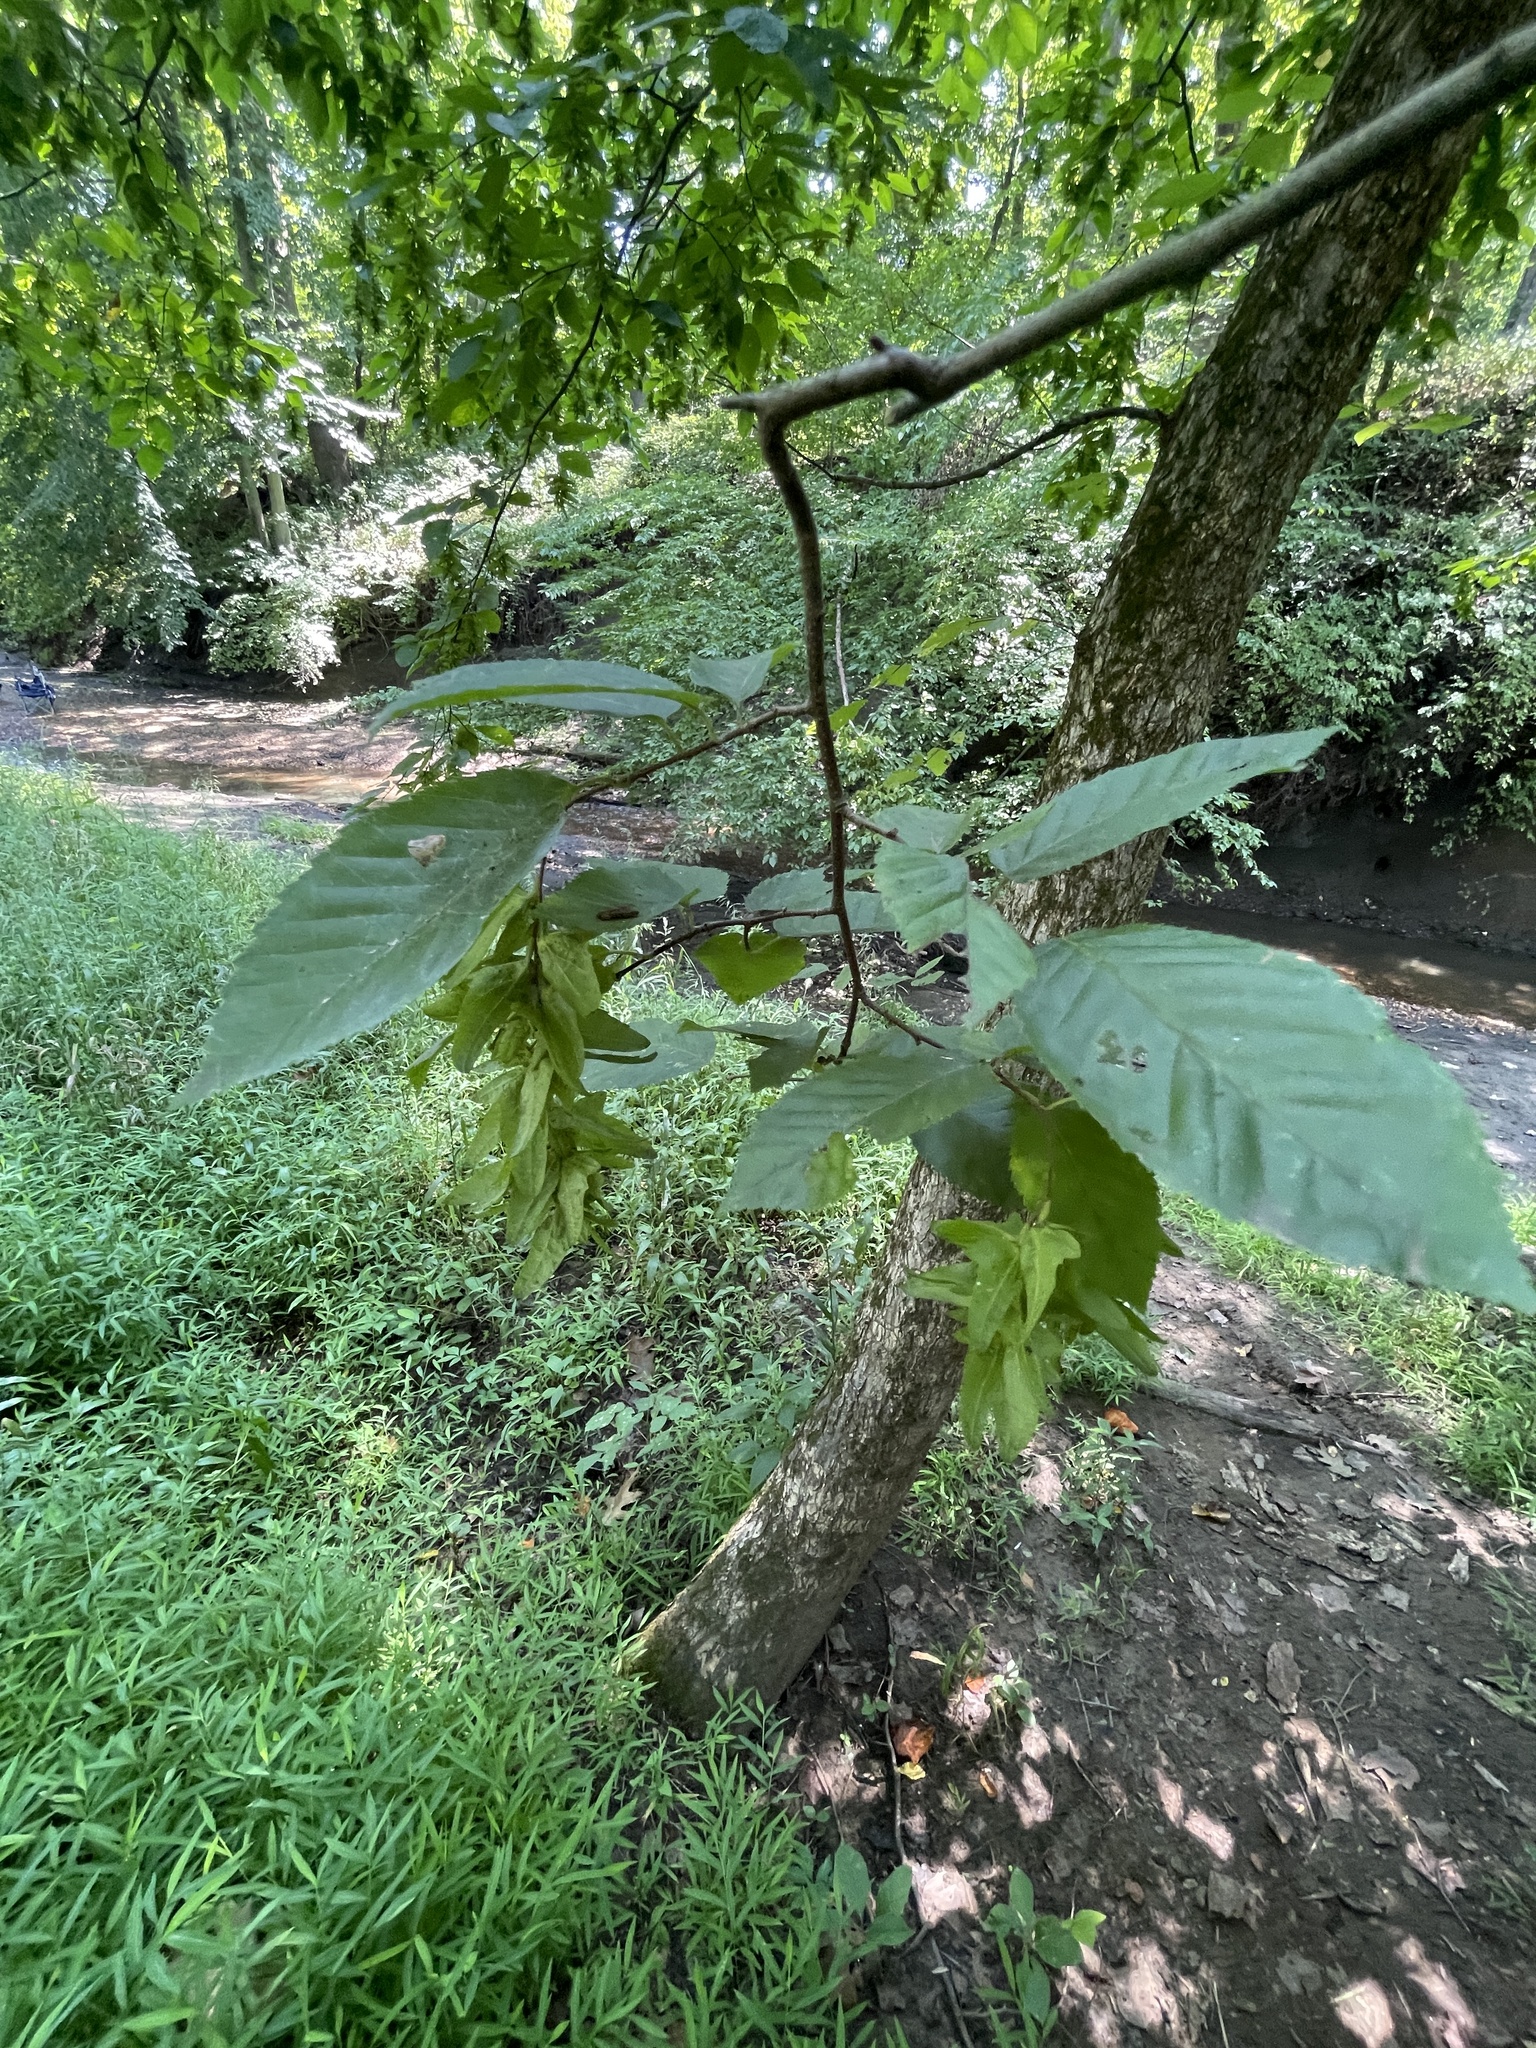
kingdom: Plantae
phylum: Tracheophyta
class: Magnoliopsida
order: Fagales
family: Betulaceae
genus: Carpinus
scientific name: Carpinus caroliniana
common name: American hornbeam
